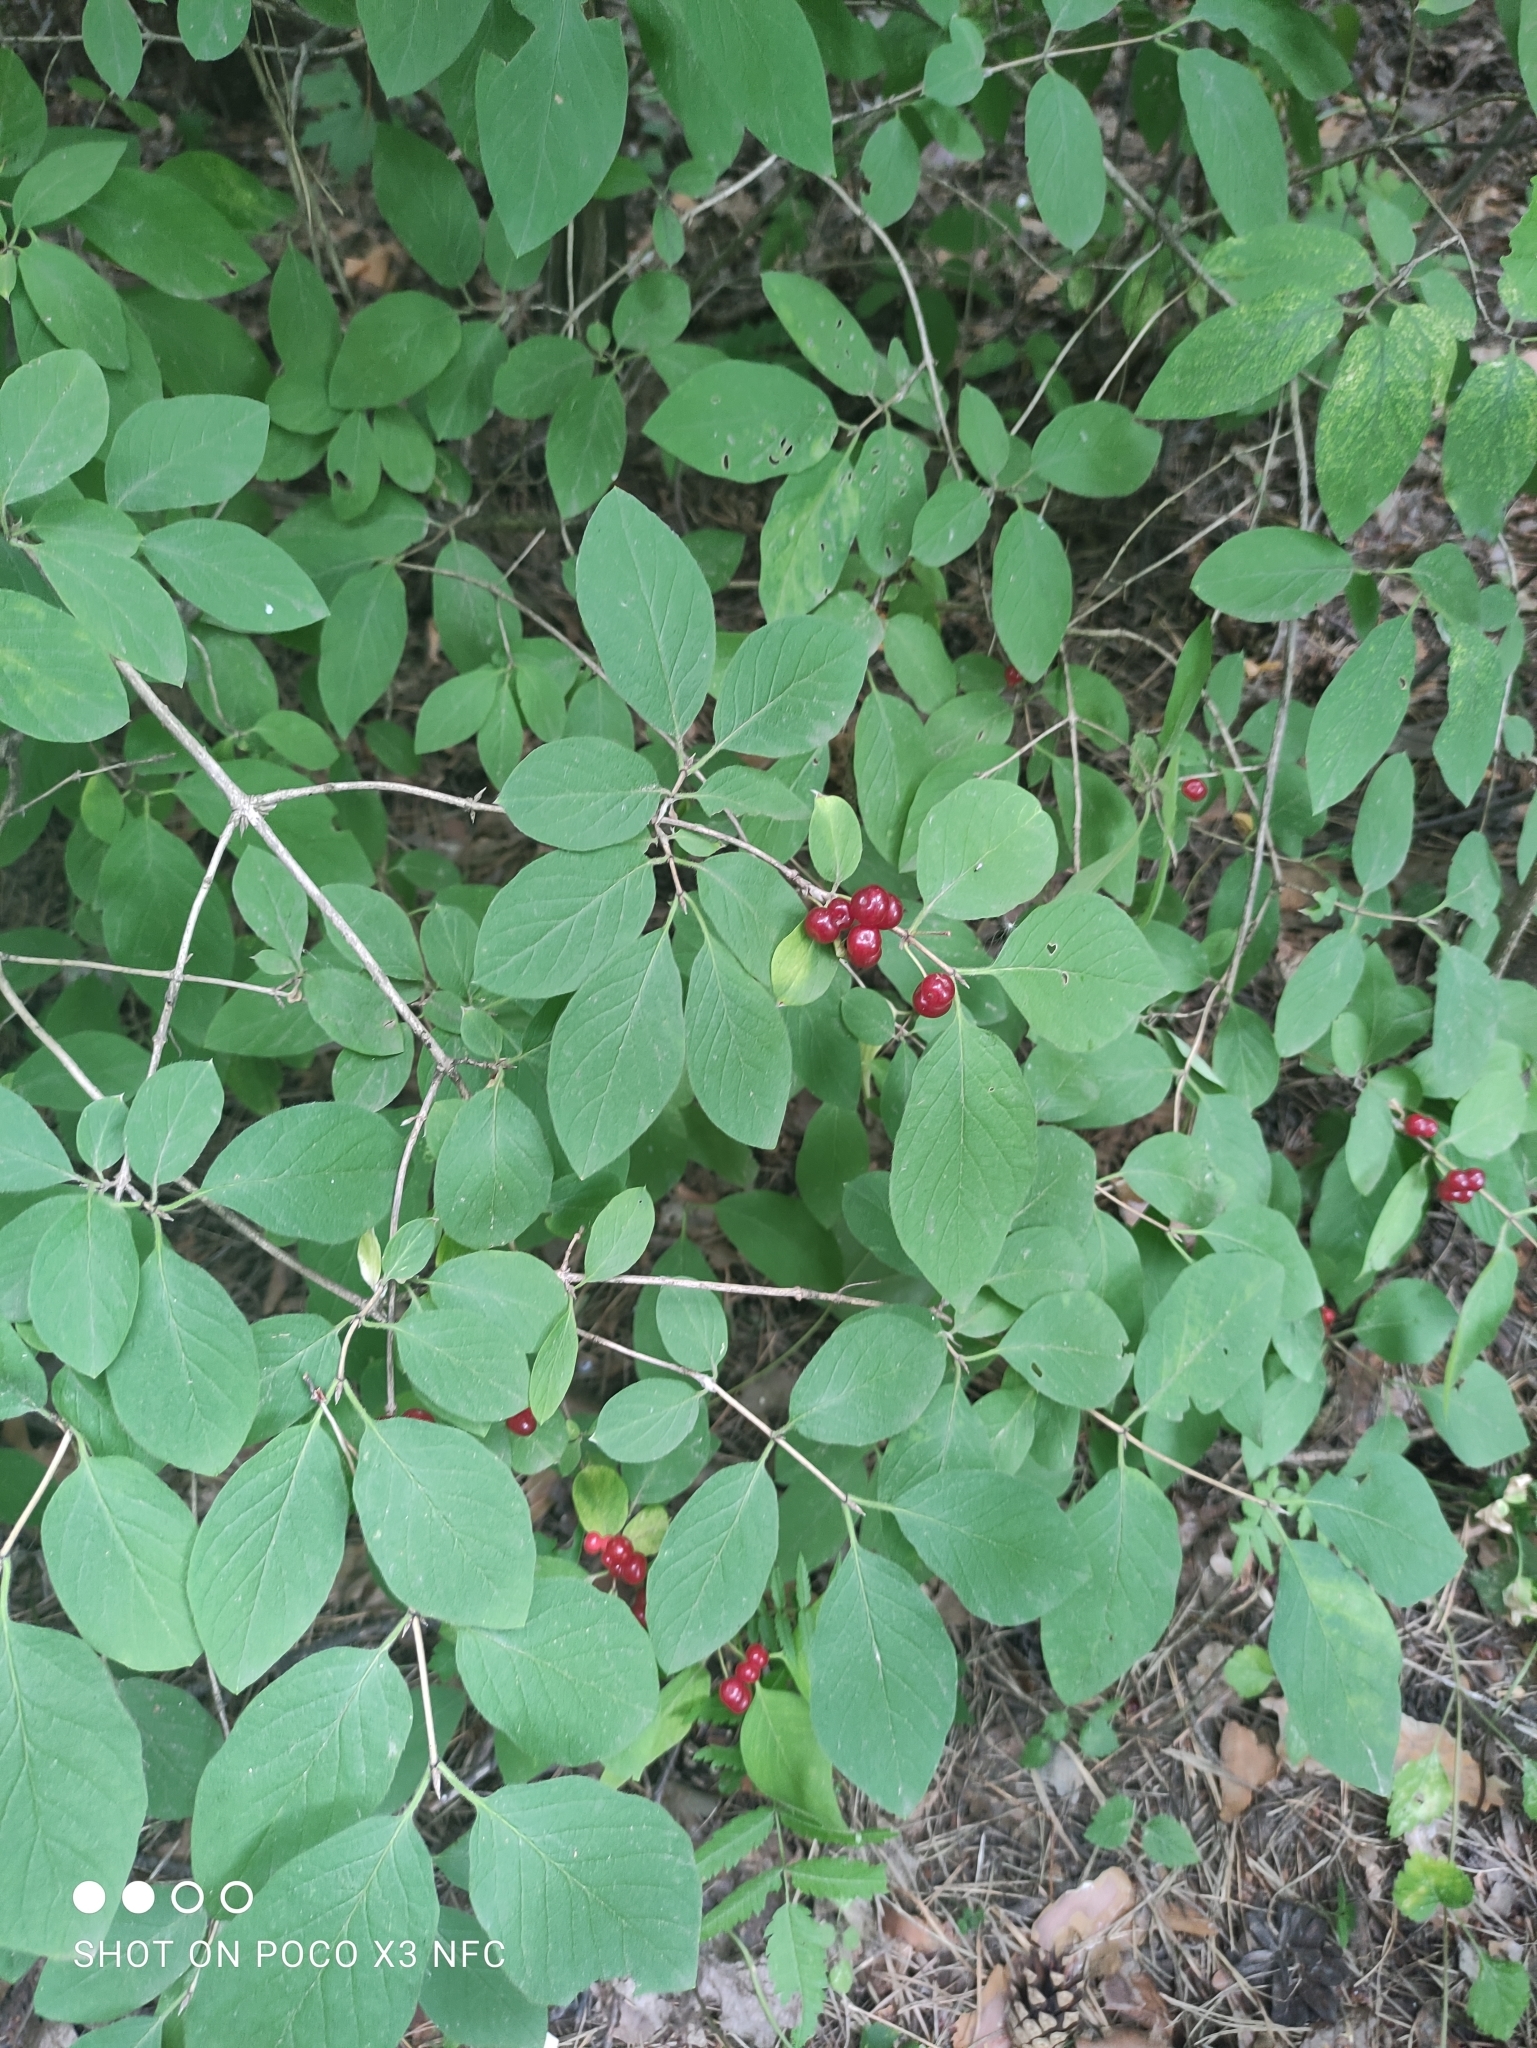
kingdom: Plantae
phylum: Tracheophyta
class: Magnoliopsida
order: Dipsacales
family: Caprifoliaceae
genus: Lonicera
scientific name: Lonicera xylosteum
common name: Fly honeysuckle
